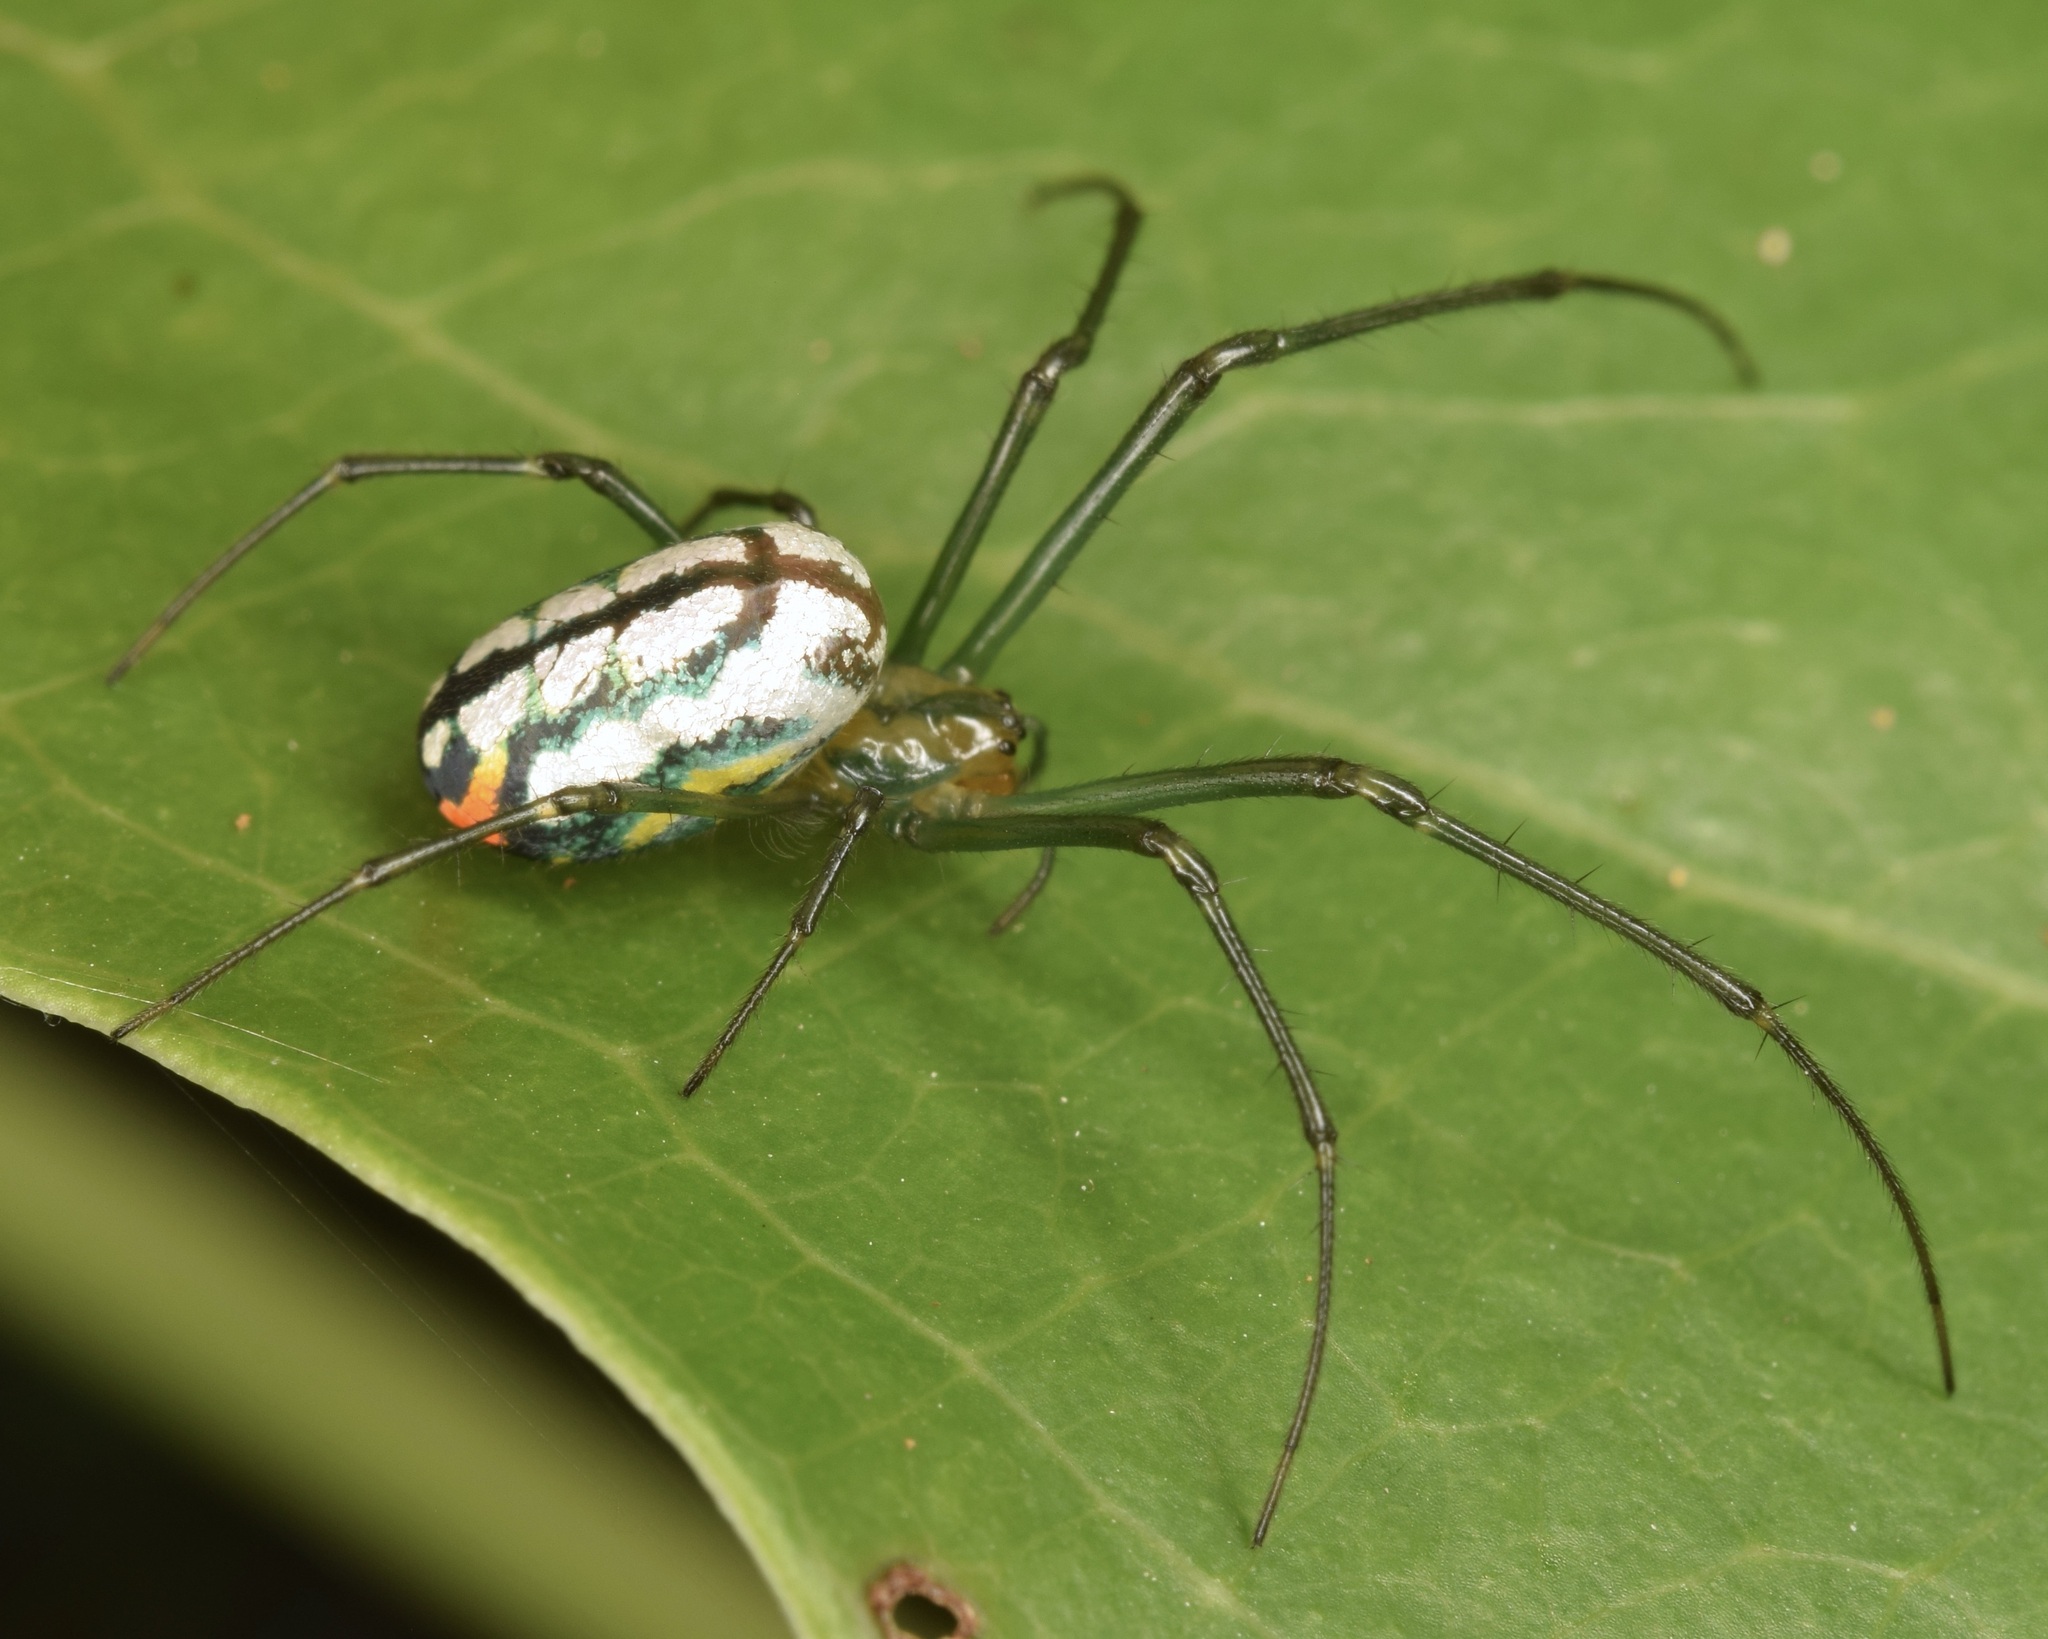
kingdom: Animalia
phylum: Arthropoda
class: Arachnida
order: Araneae
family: Tetragnathidae
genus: Leucauge
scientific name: Leucauge argyrobapta
